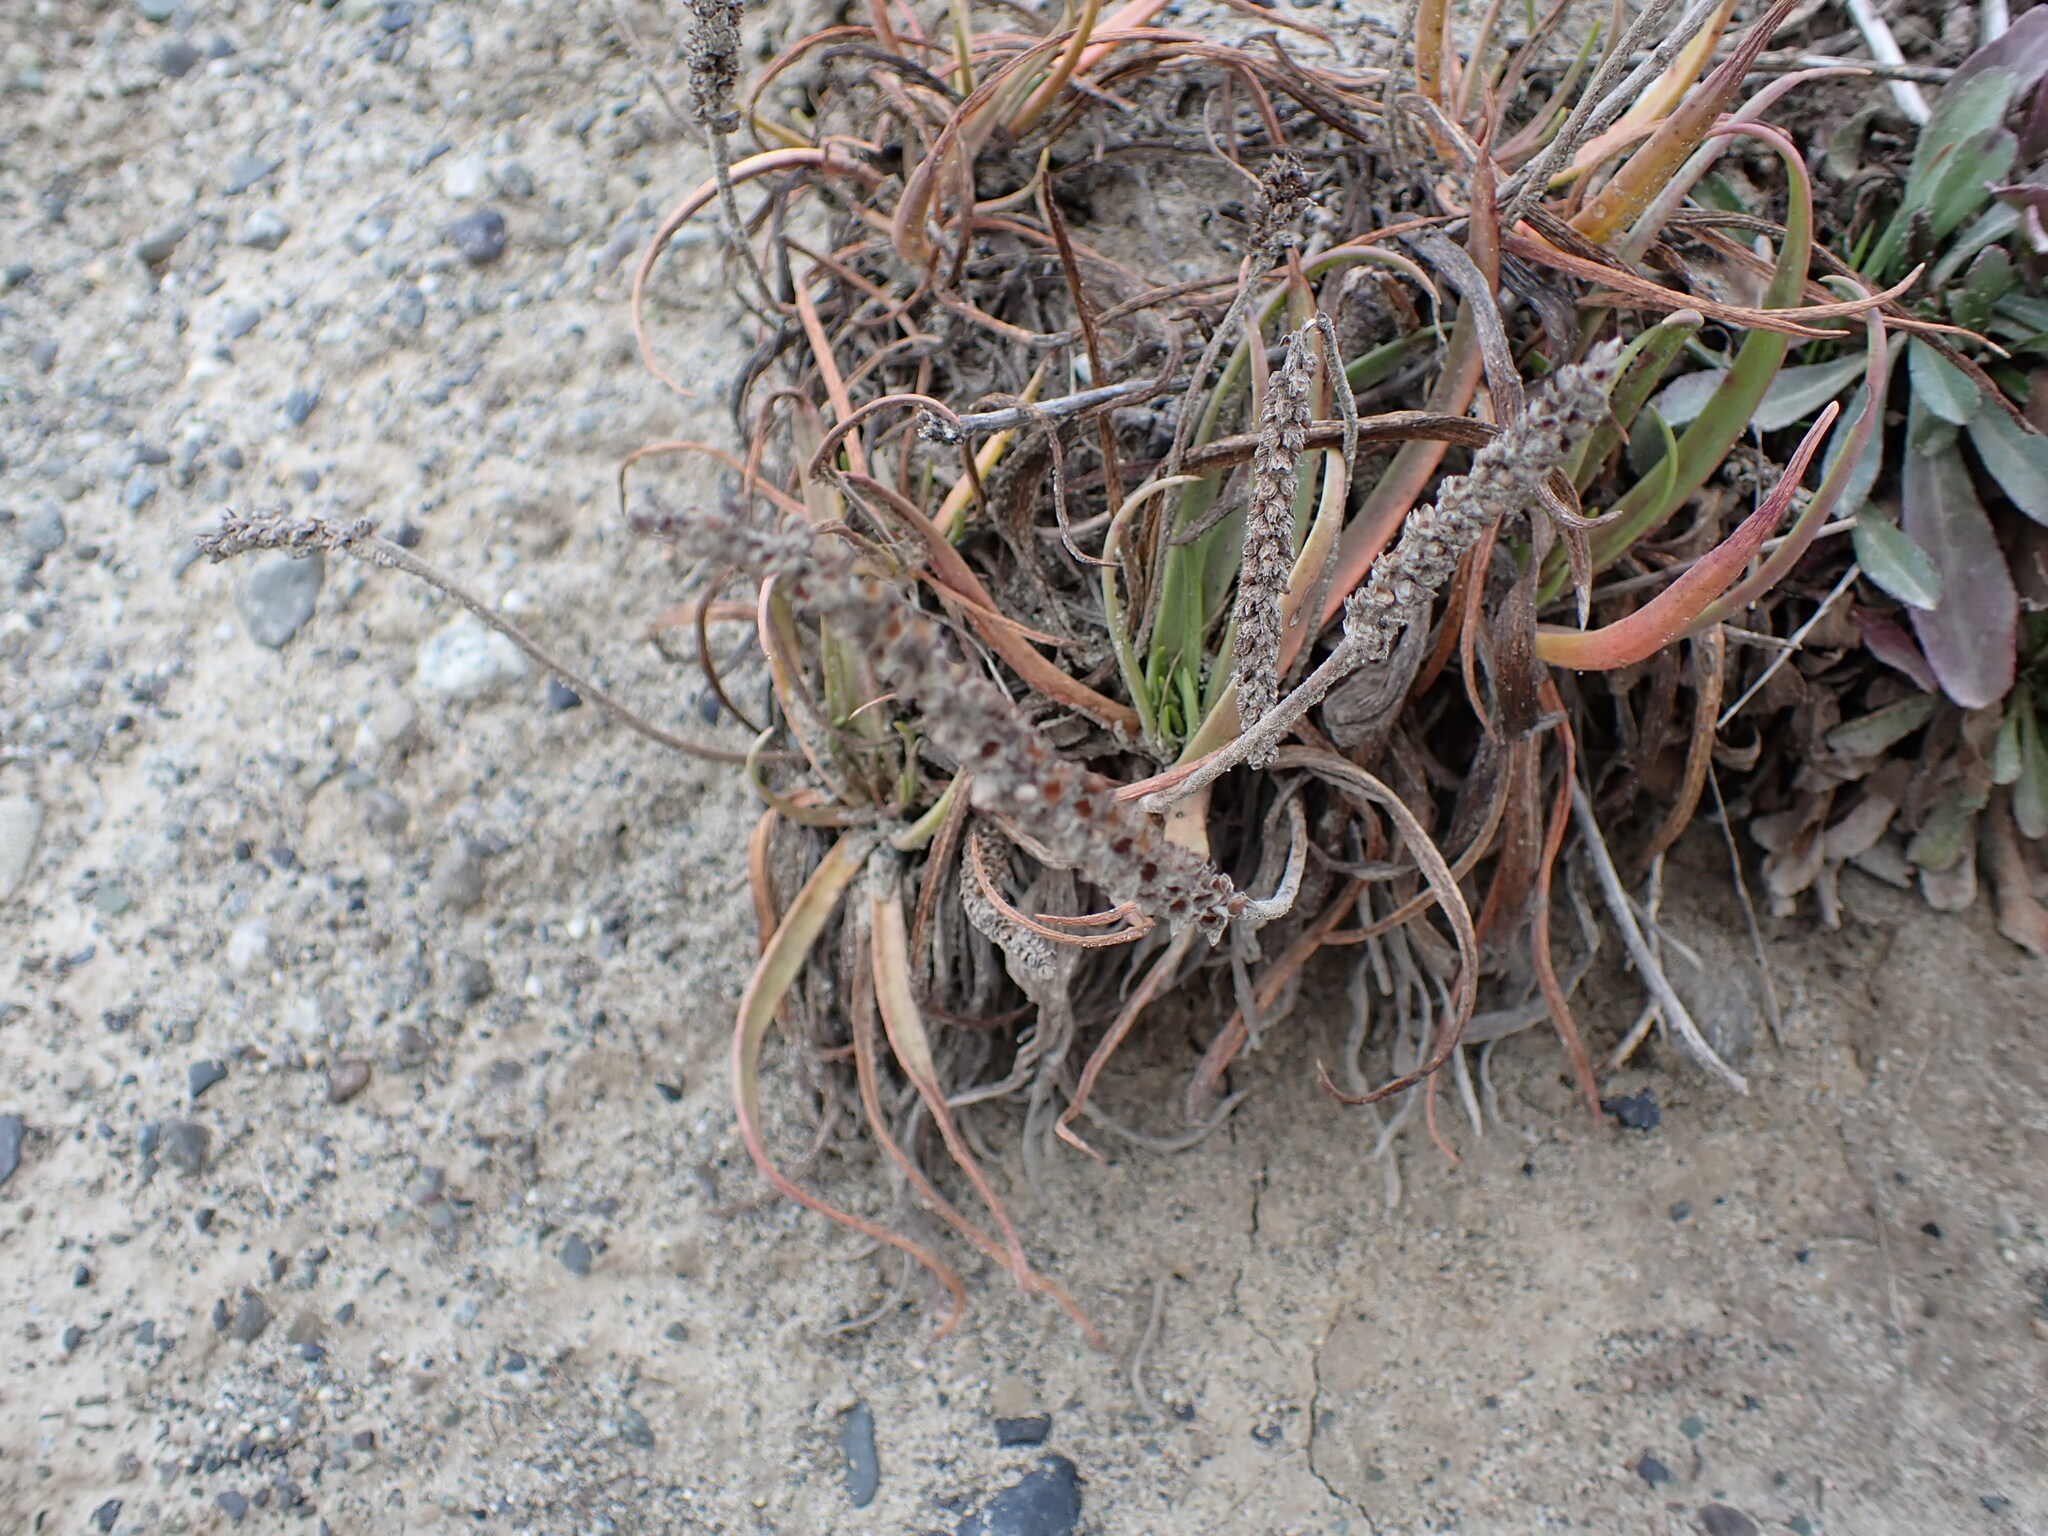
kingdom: Plantae
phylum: Tracheophyta
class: Magnoliopsida
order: Lamiales
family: Plantaginaceae
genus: Plantago
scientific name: Plantago maritima
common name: Sea plantain
